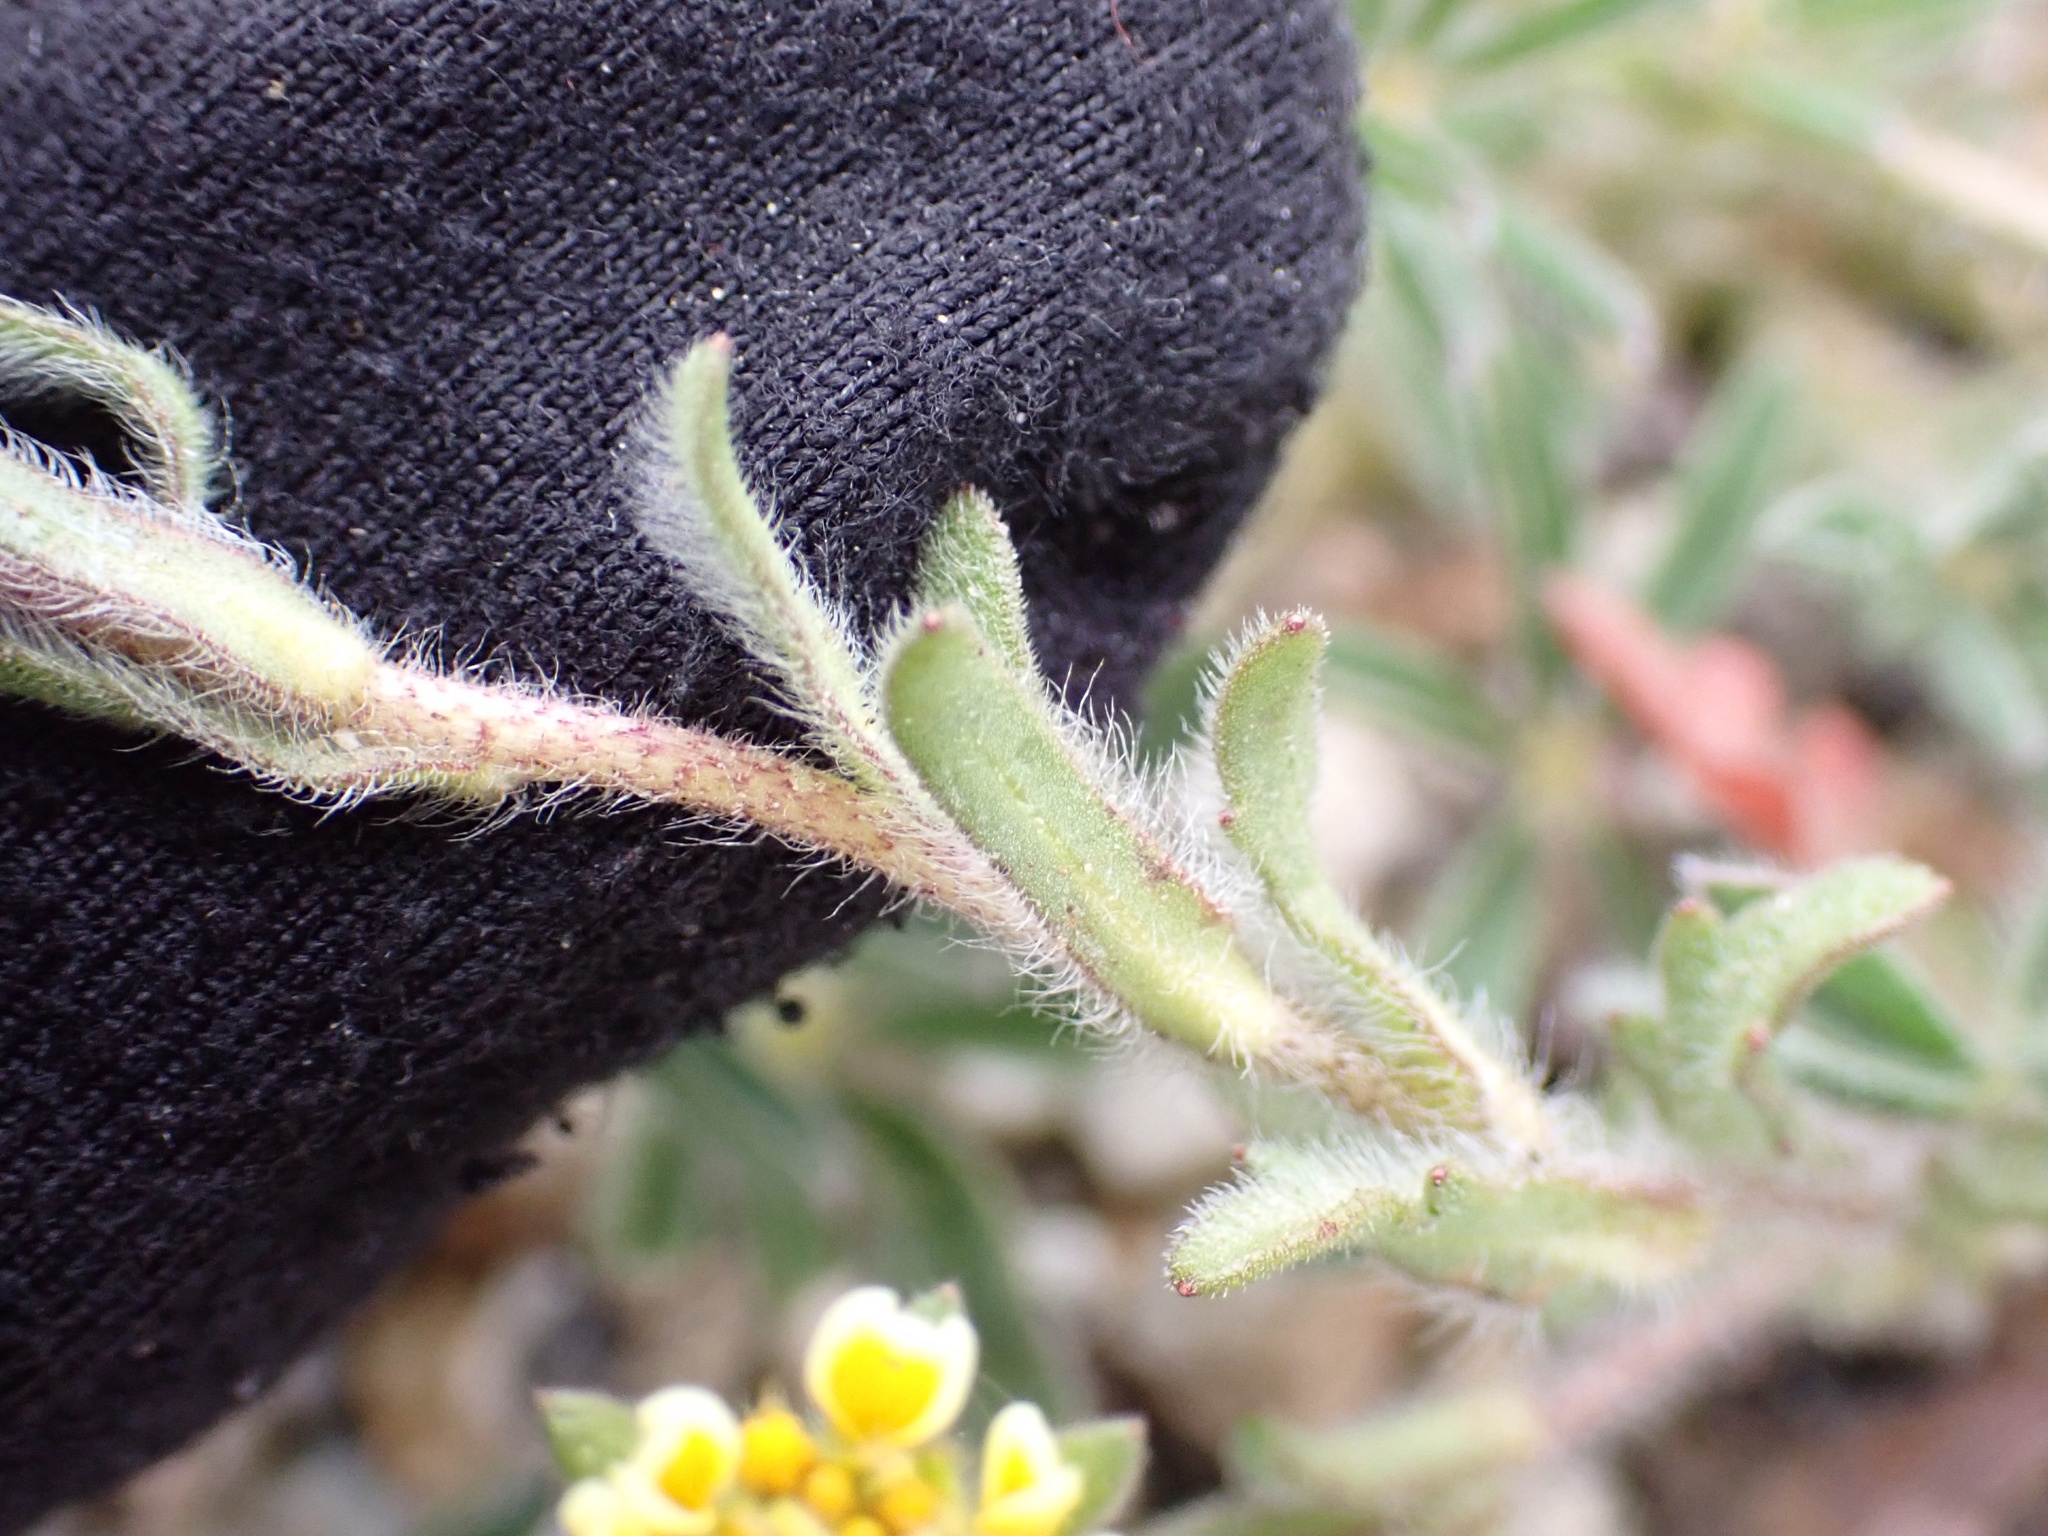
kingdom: Plantae
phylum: Tracheophyta
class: Magnoliopsida
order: Asterales
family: Asteraceae
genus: Layia
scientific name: Layia platyglossa
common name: Tidy-tips
